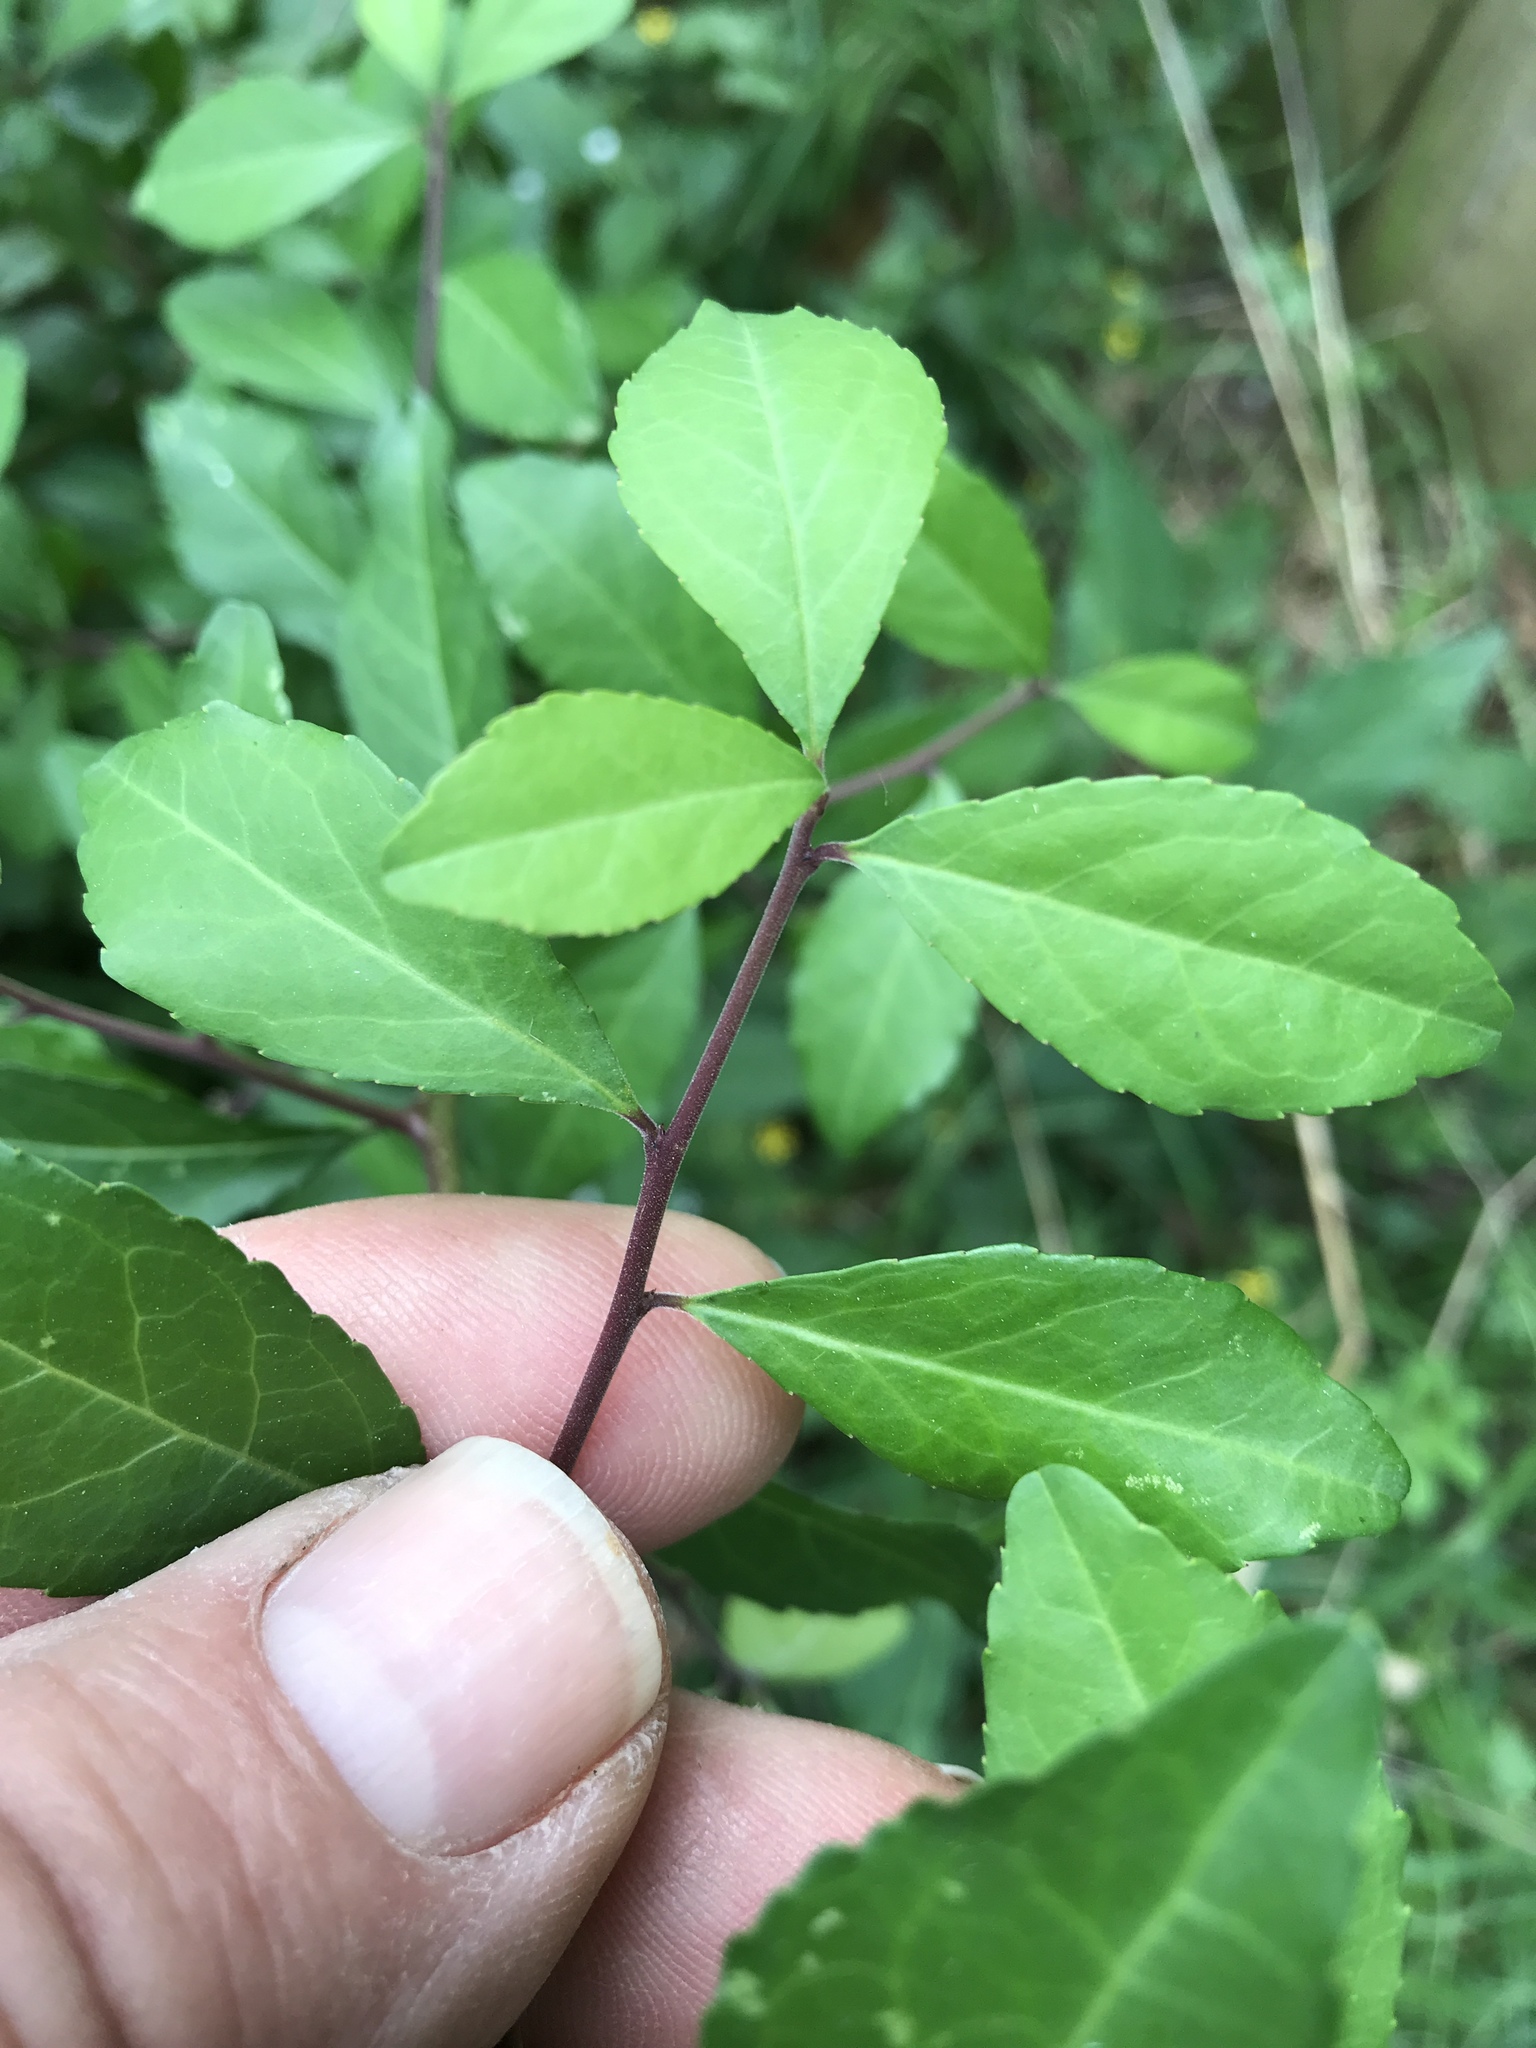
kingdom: Plantae
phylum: Tracheophyta
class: Magnoliopsida
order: Aquifoliales
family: Aquifoliaceae
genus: Ilex
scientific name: Ilex decidua
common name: Possum-haw
